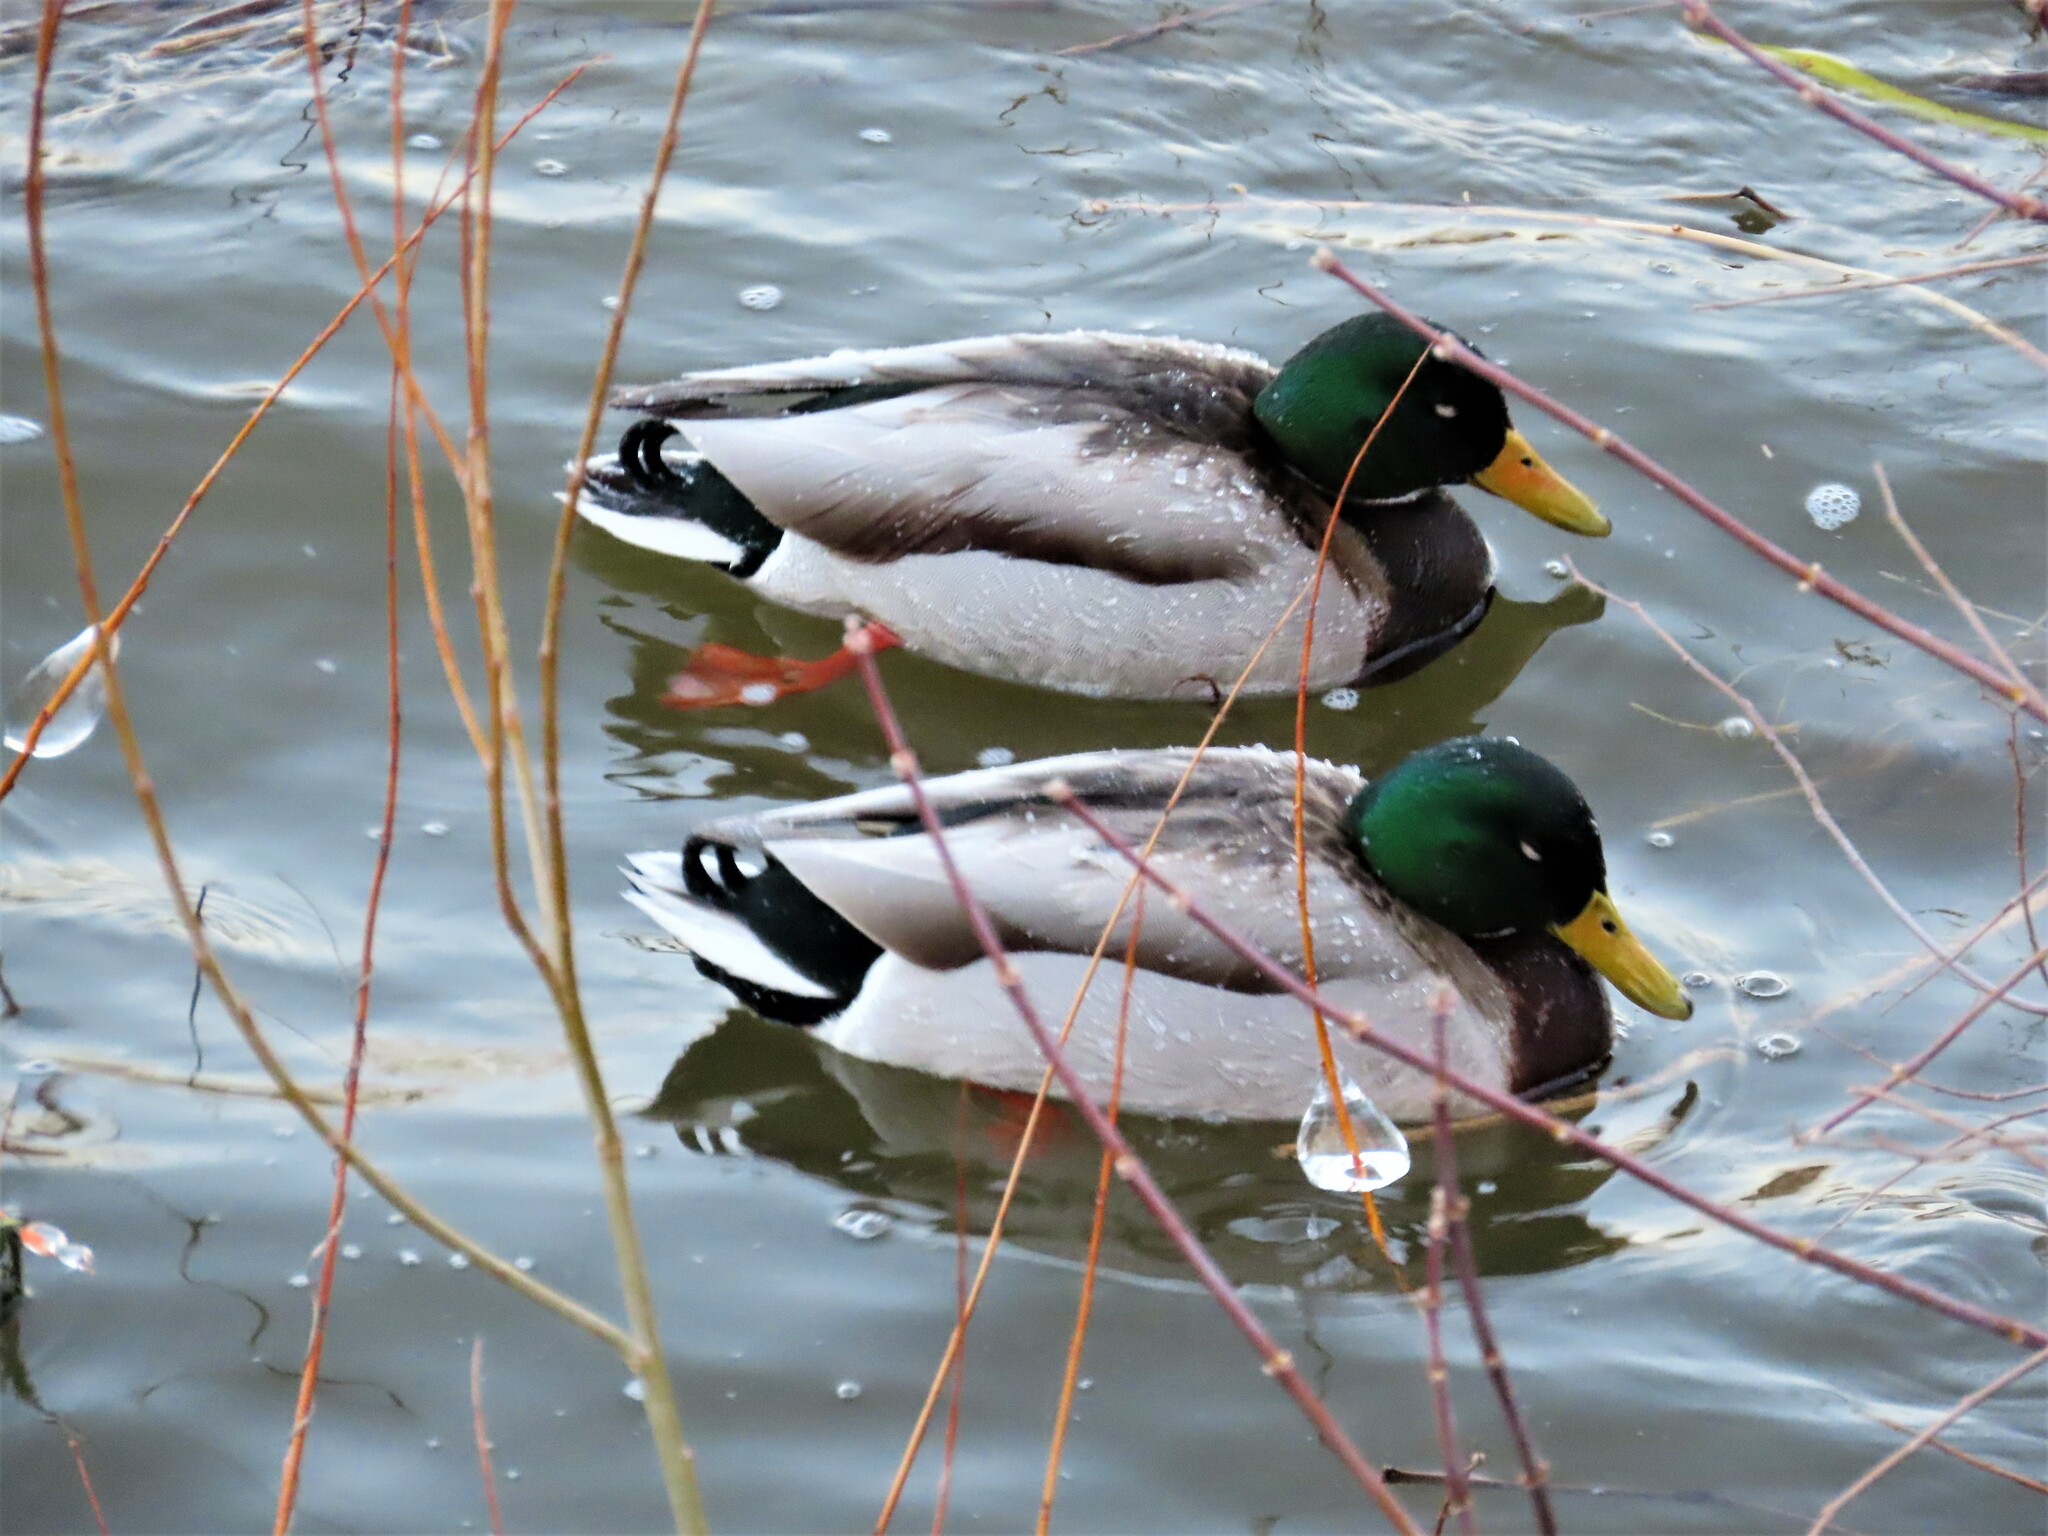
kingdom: Animalia
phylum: Chordata
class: Aves
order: Anseriformes
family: Anatidae
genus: Anas
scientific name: Anas platyrhynchos
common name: Mallard
